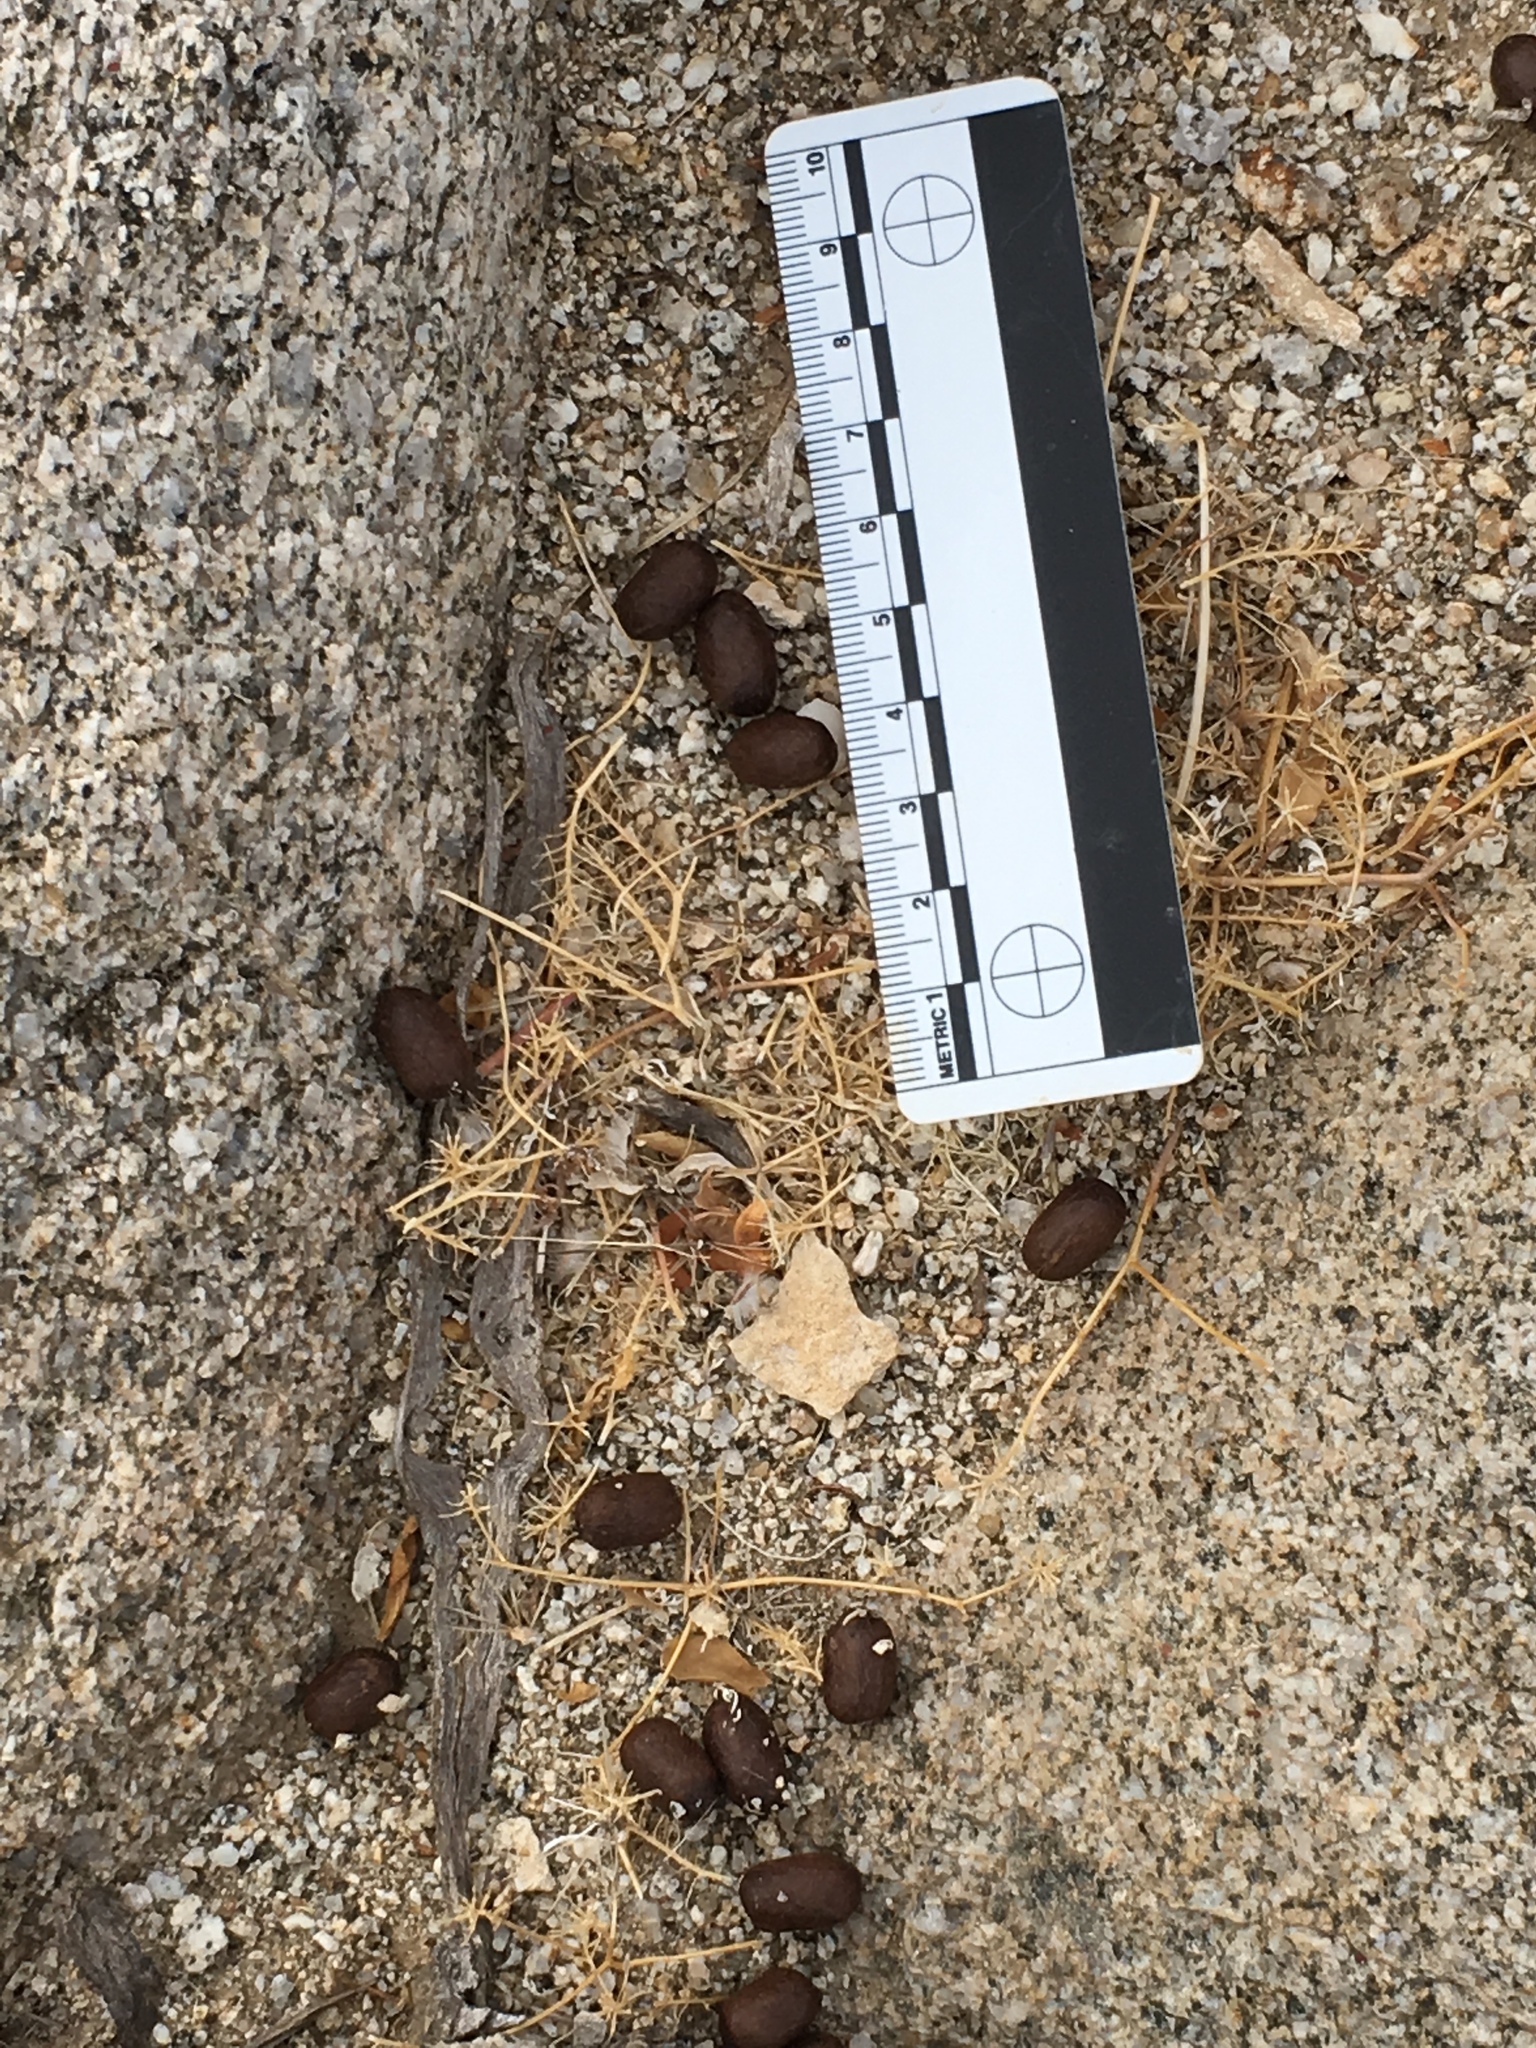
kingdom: Animalia
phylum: Chordata
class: Mammalia
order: Artiodactyla
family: Bovidae
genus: Ovis
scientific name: Ovis canadensis
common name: Bighorn sheep
